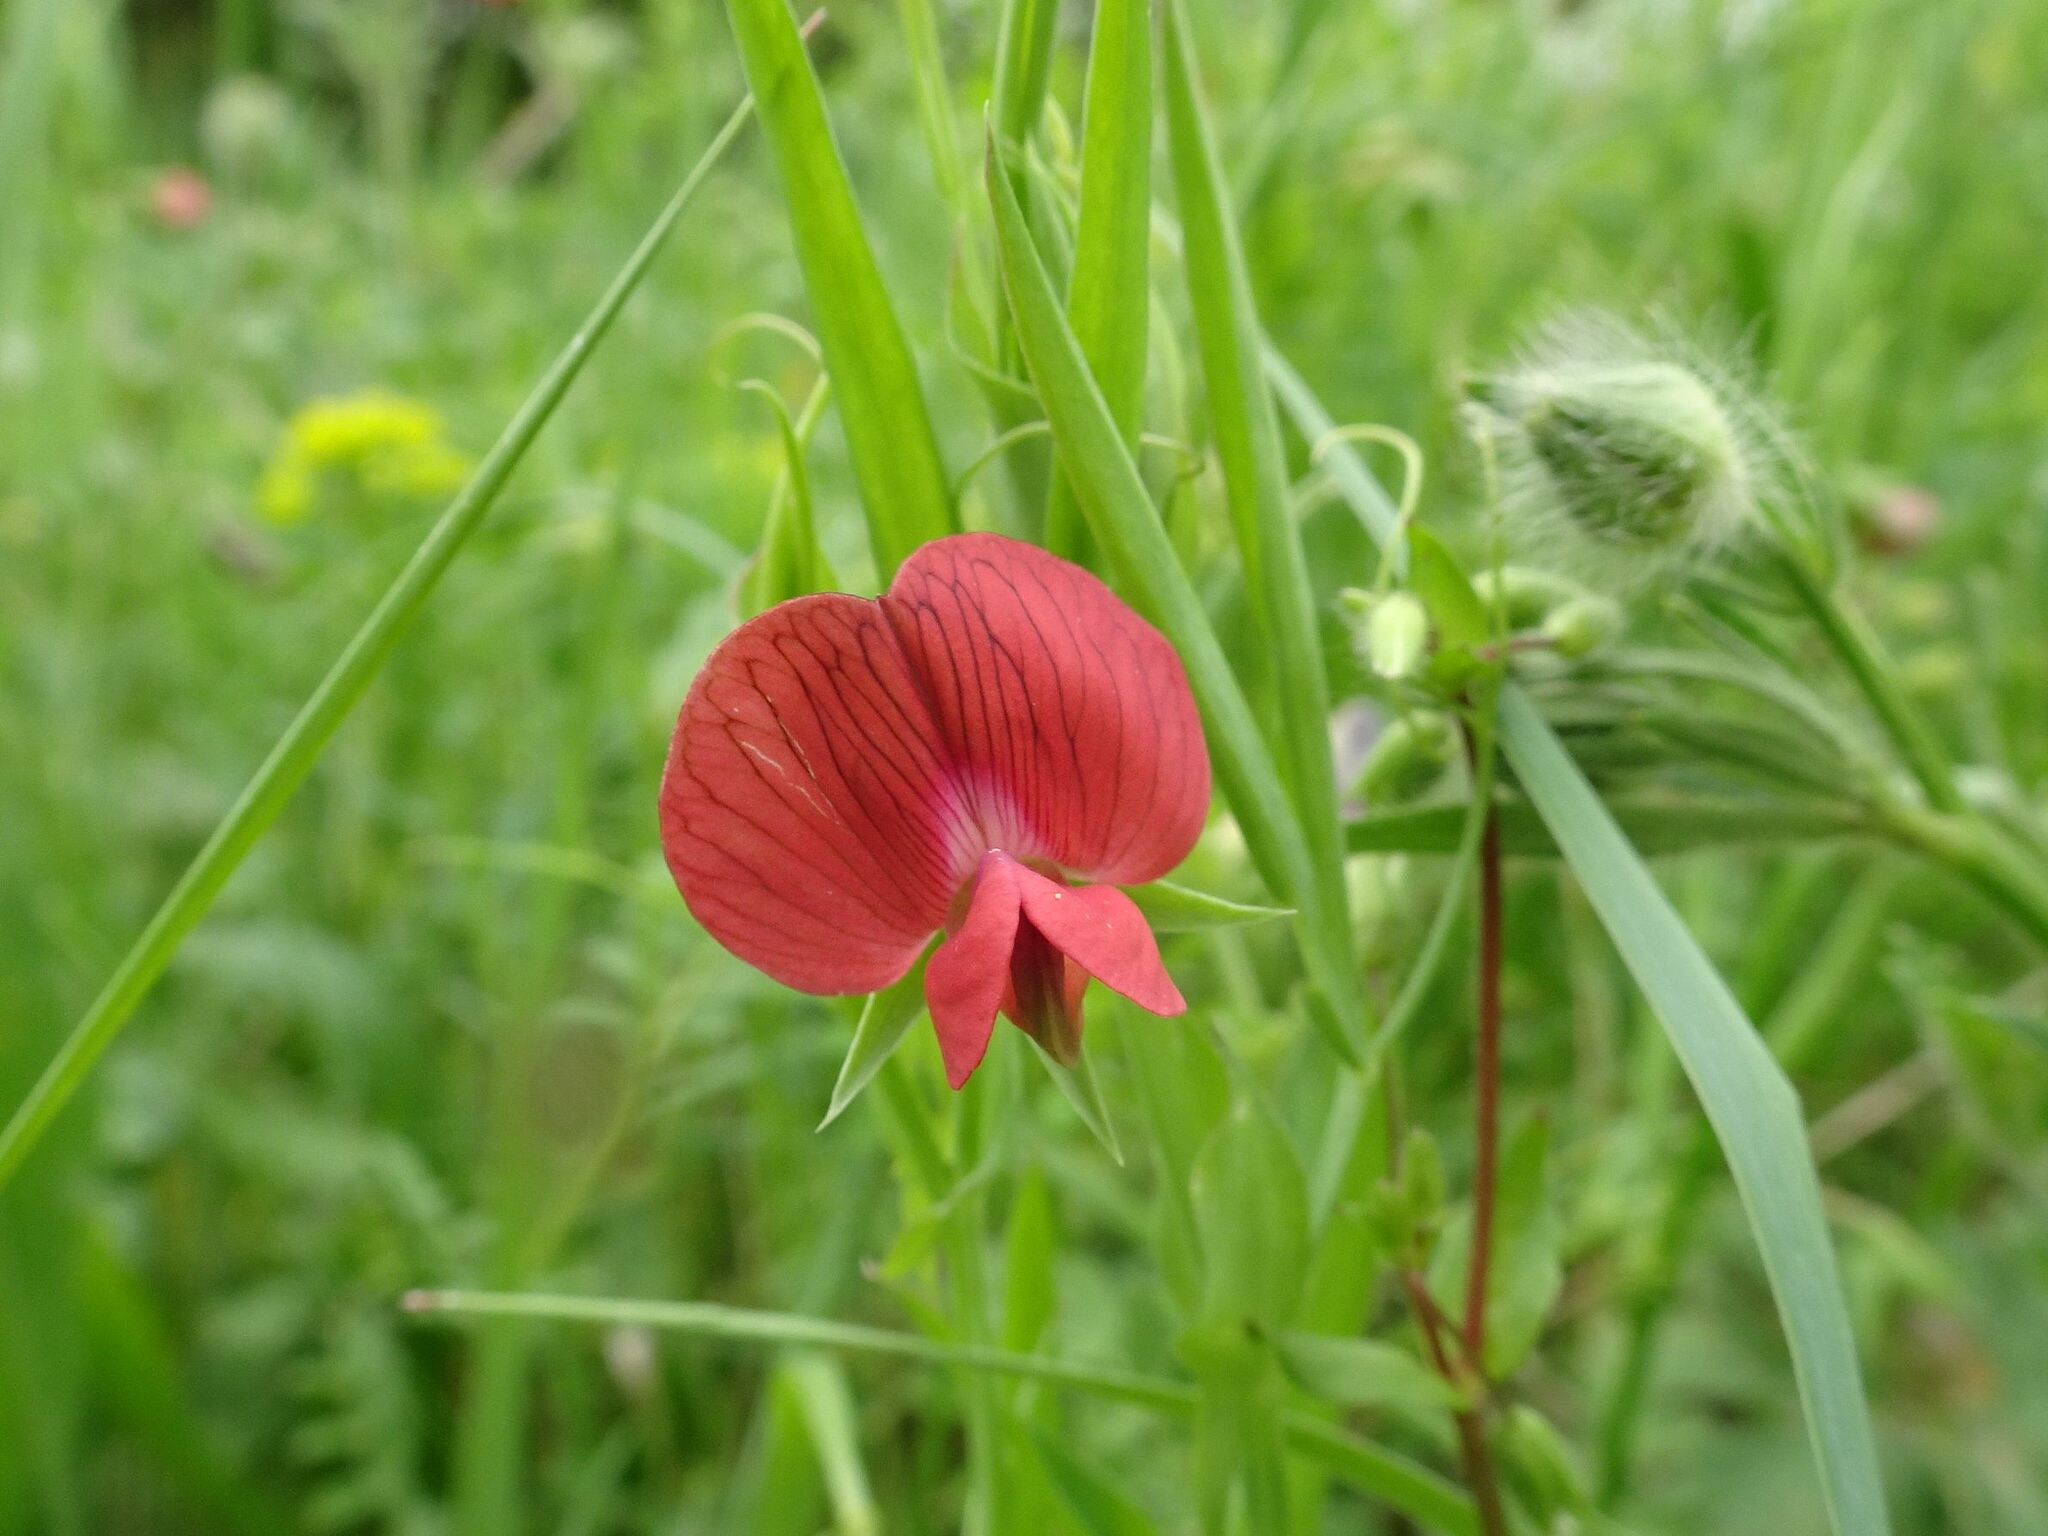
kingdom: Plantae
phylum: Tracheophyta
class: Magnoliopsida
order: Fabales
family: Fabaceae
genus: Lathyrus
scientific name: Lathyrus cicera
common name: Red vetchling
